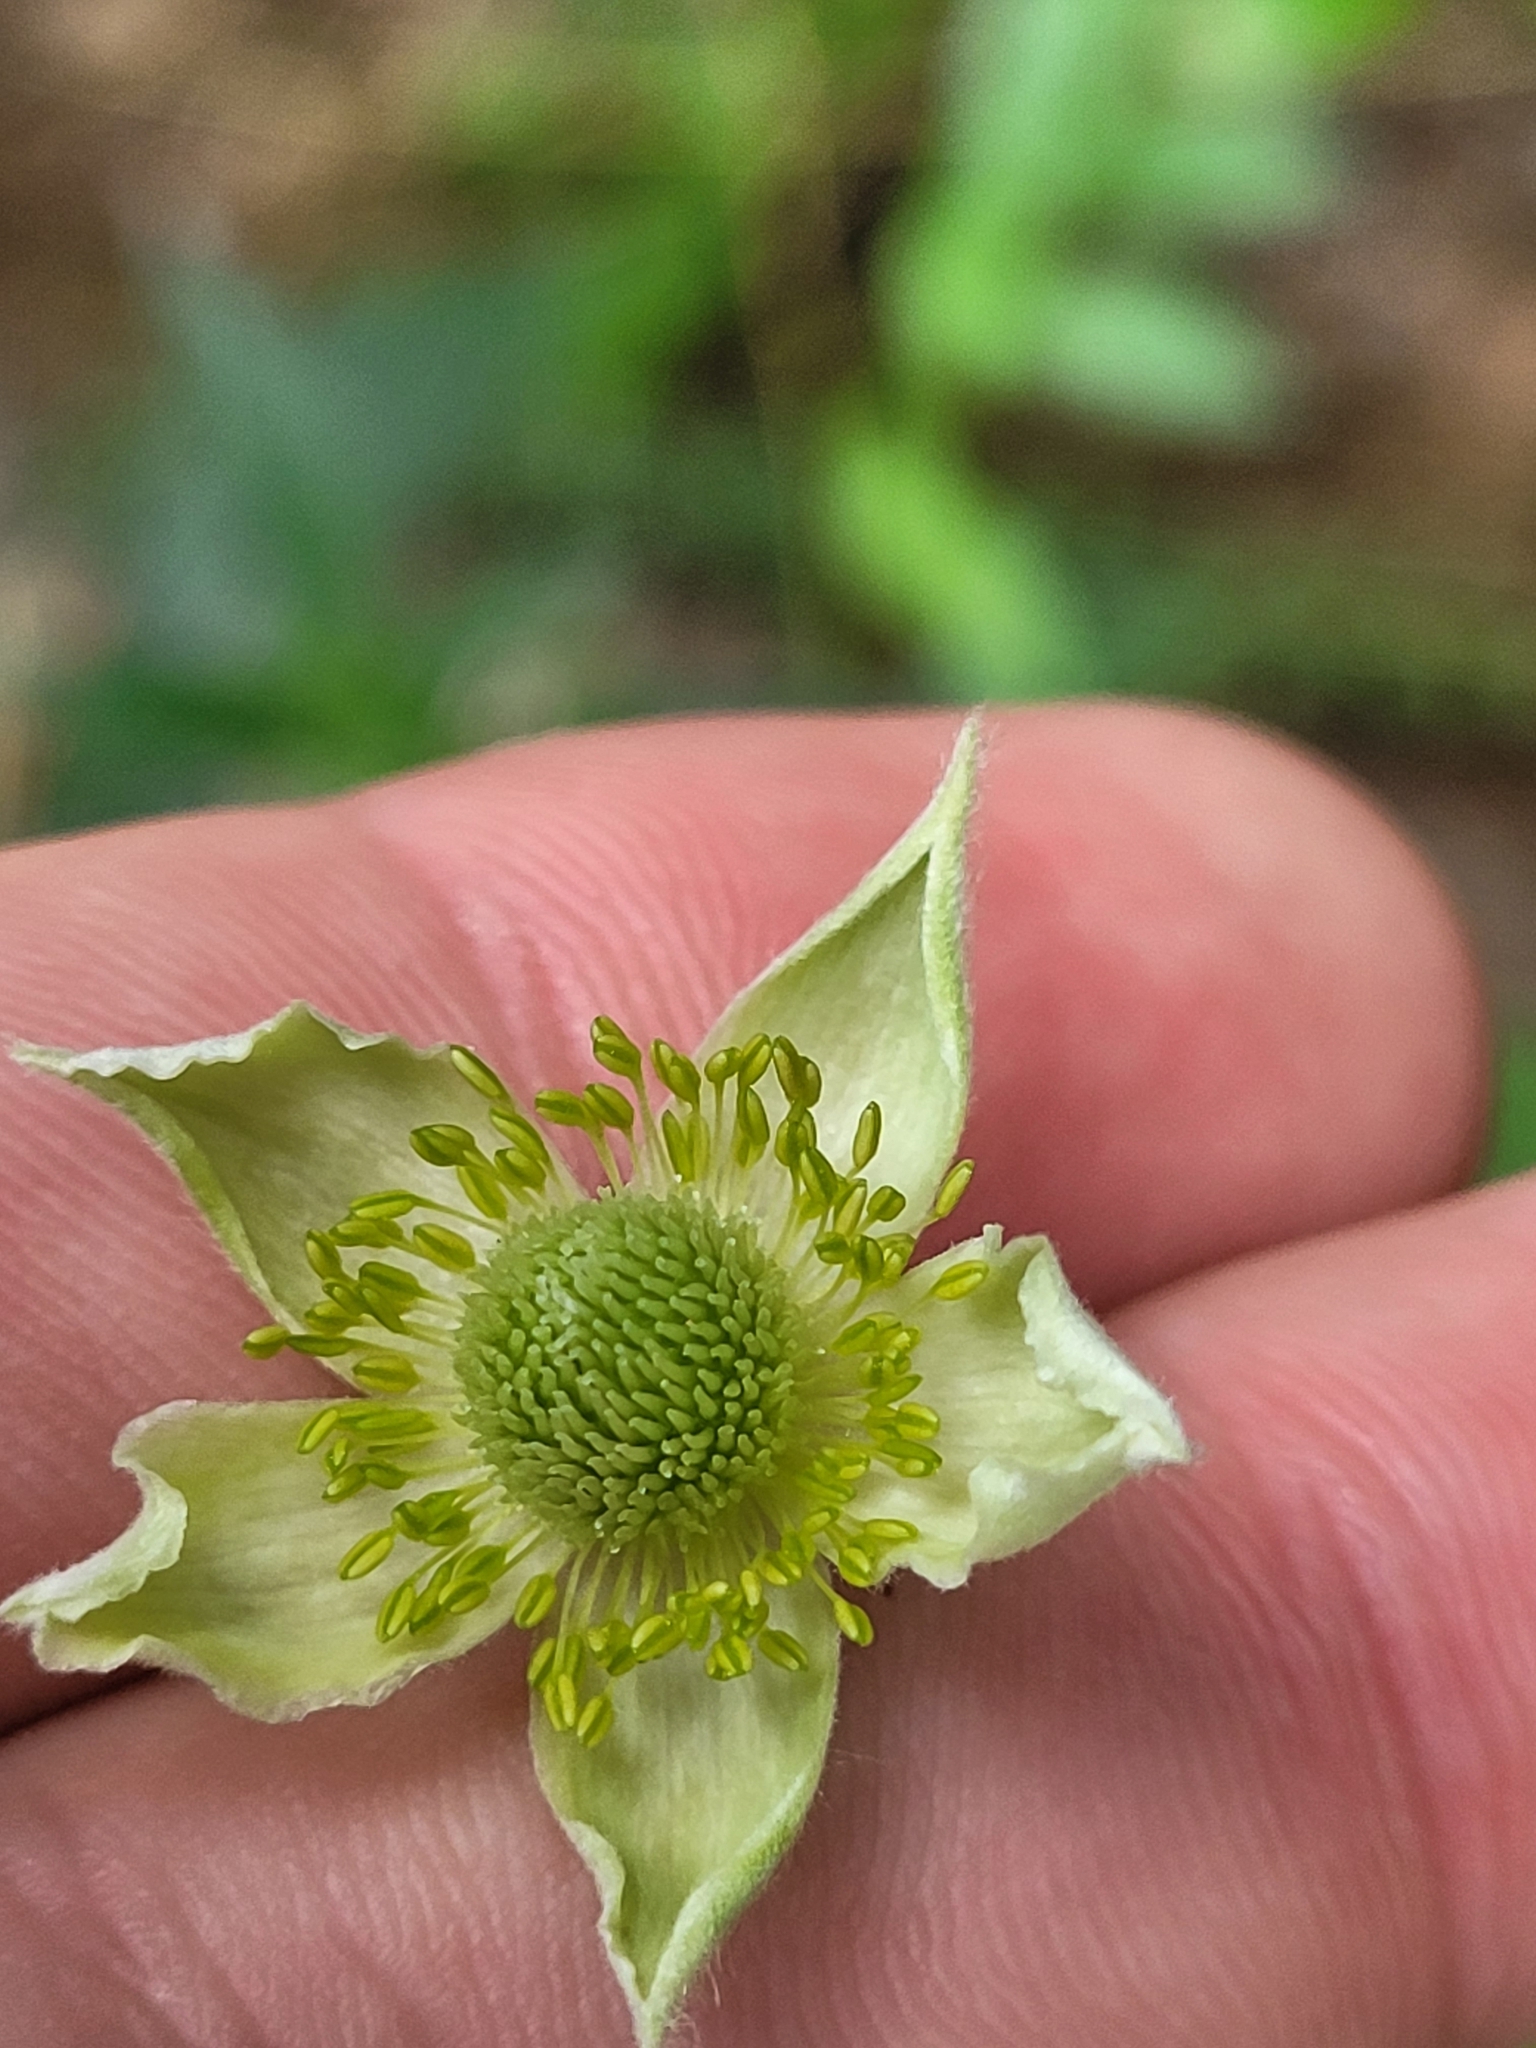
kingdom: Plantae
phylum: Tracheophyta
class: Magnoliopsida
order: Ranunculales
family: Ranunculaceae
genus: Anemone
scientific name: Anemone virginiana
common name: Tall anemone
